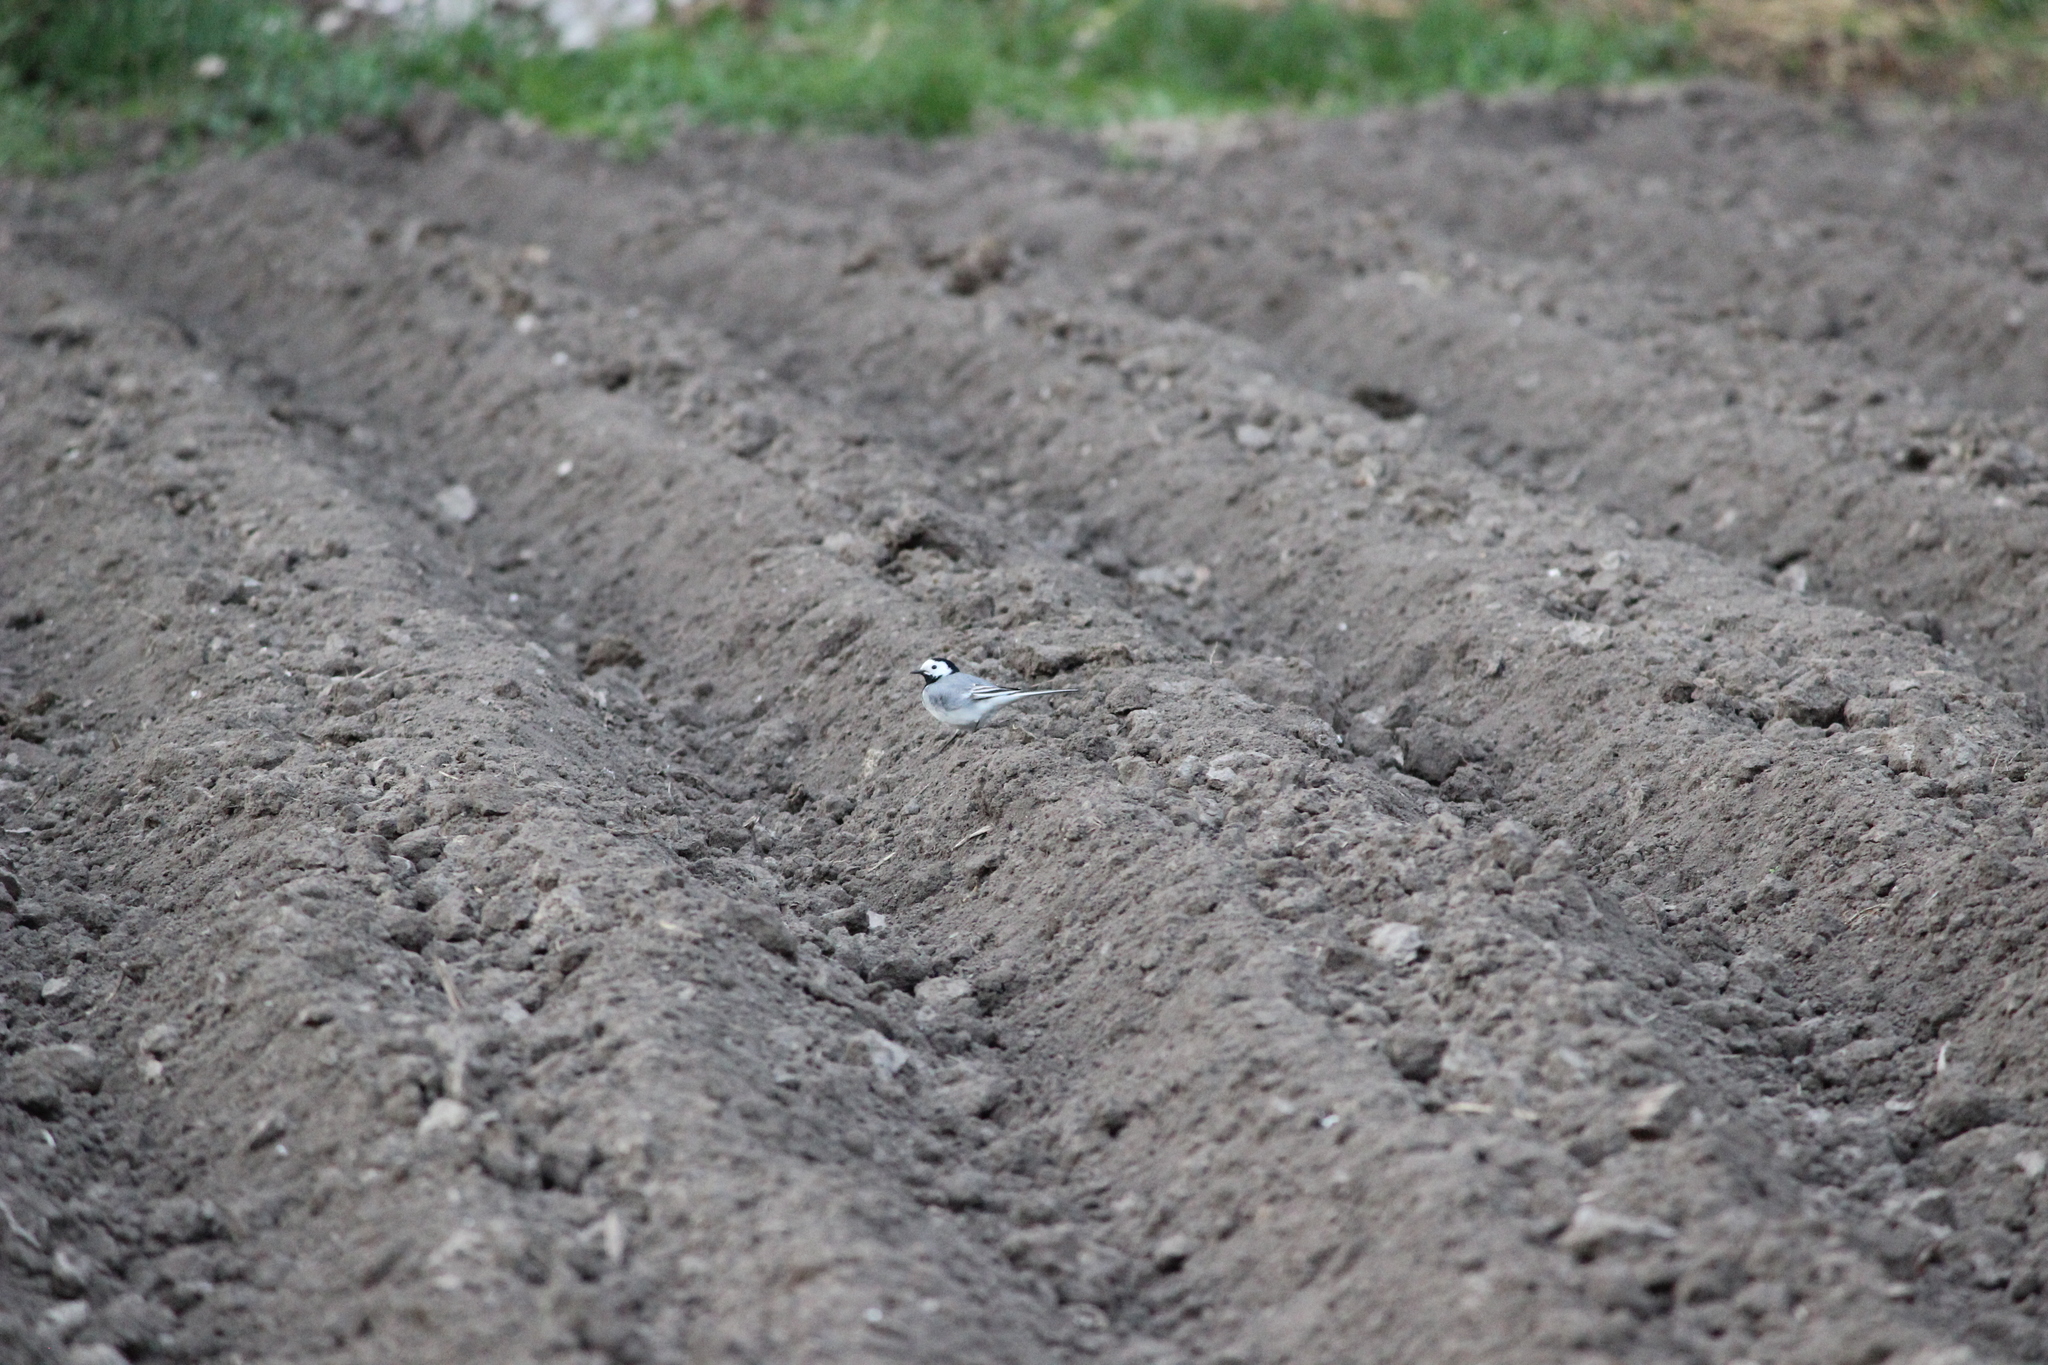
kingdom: Animalia
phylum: Chordata
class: Aves
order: Passeriformes
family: Motacillidae
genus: Motacilla
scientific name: Motacilla alba
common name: White wagtail
